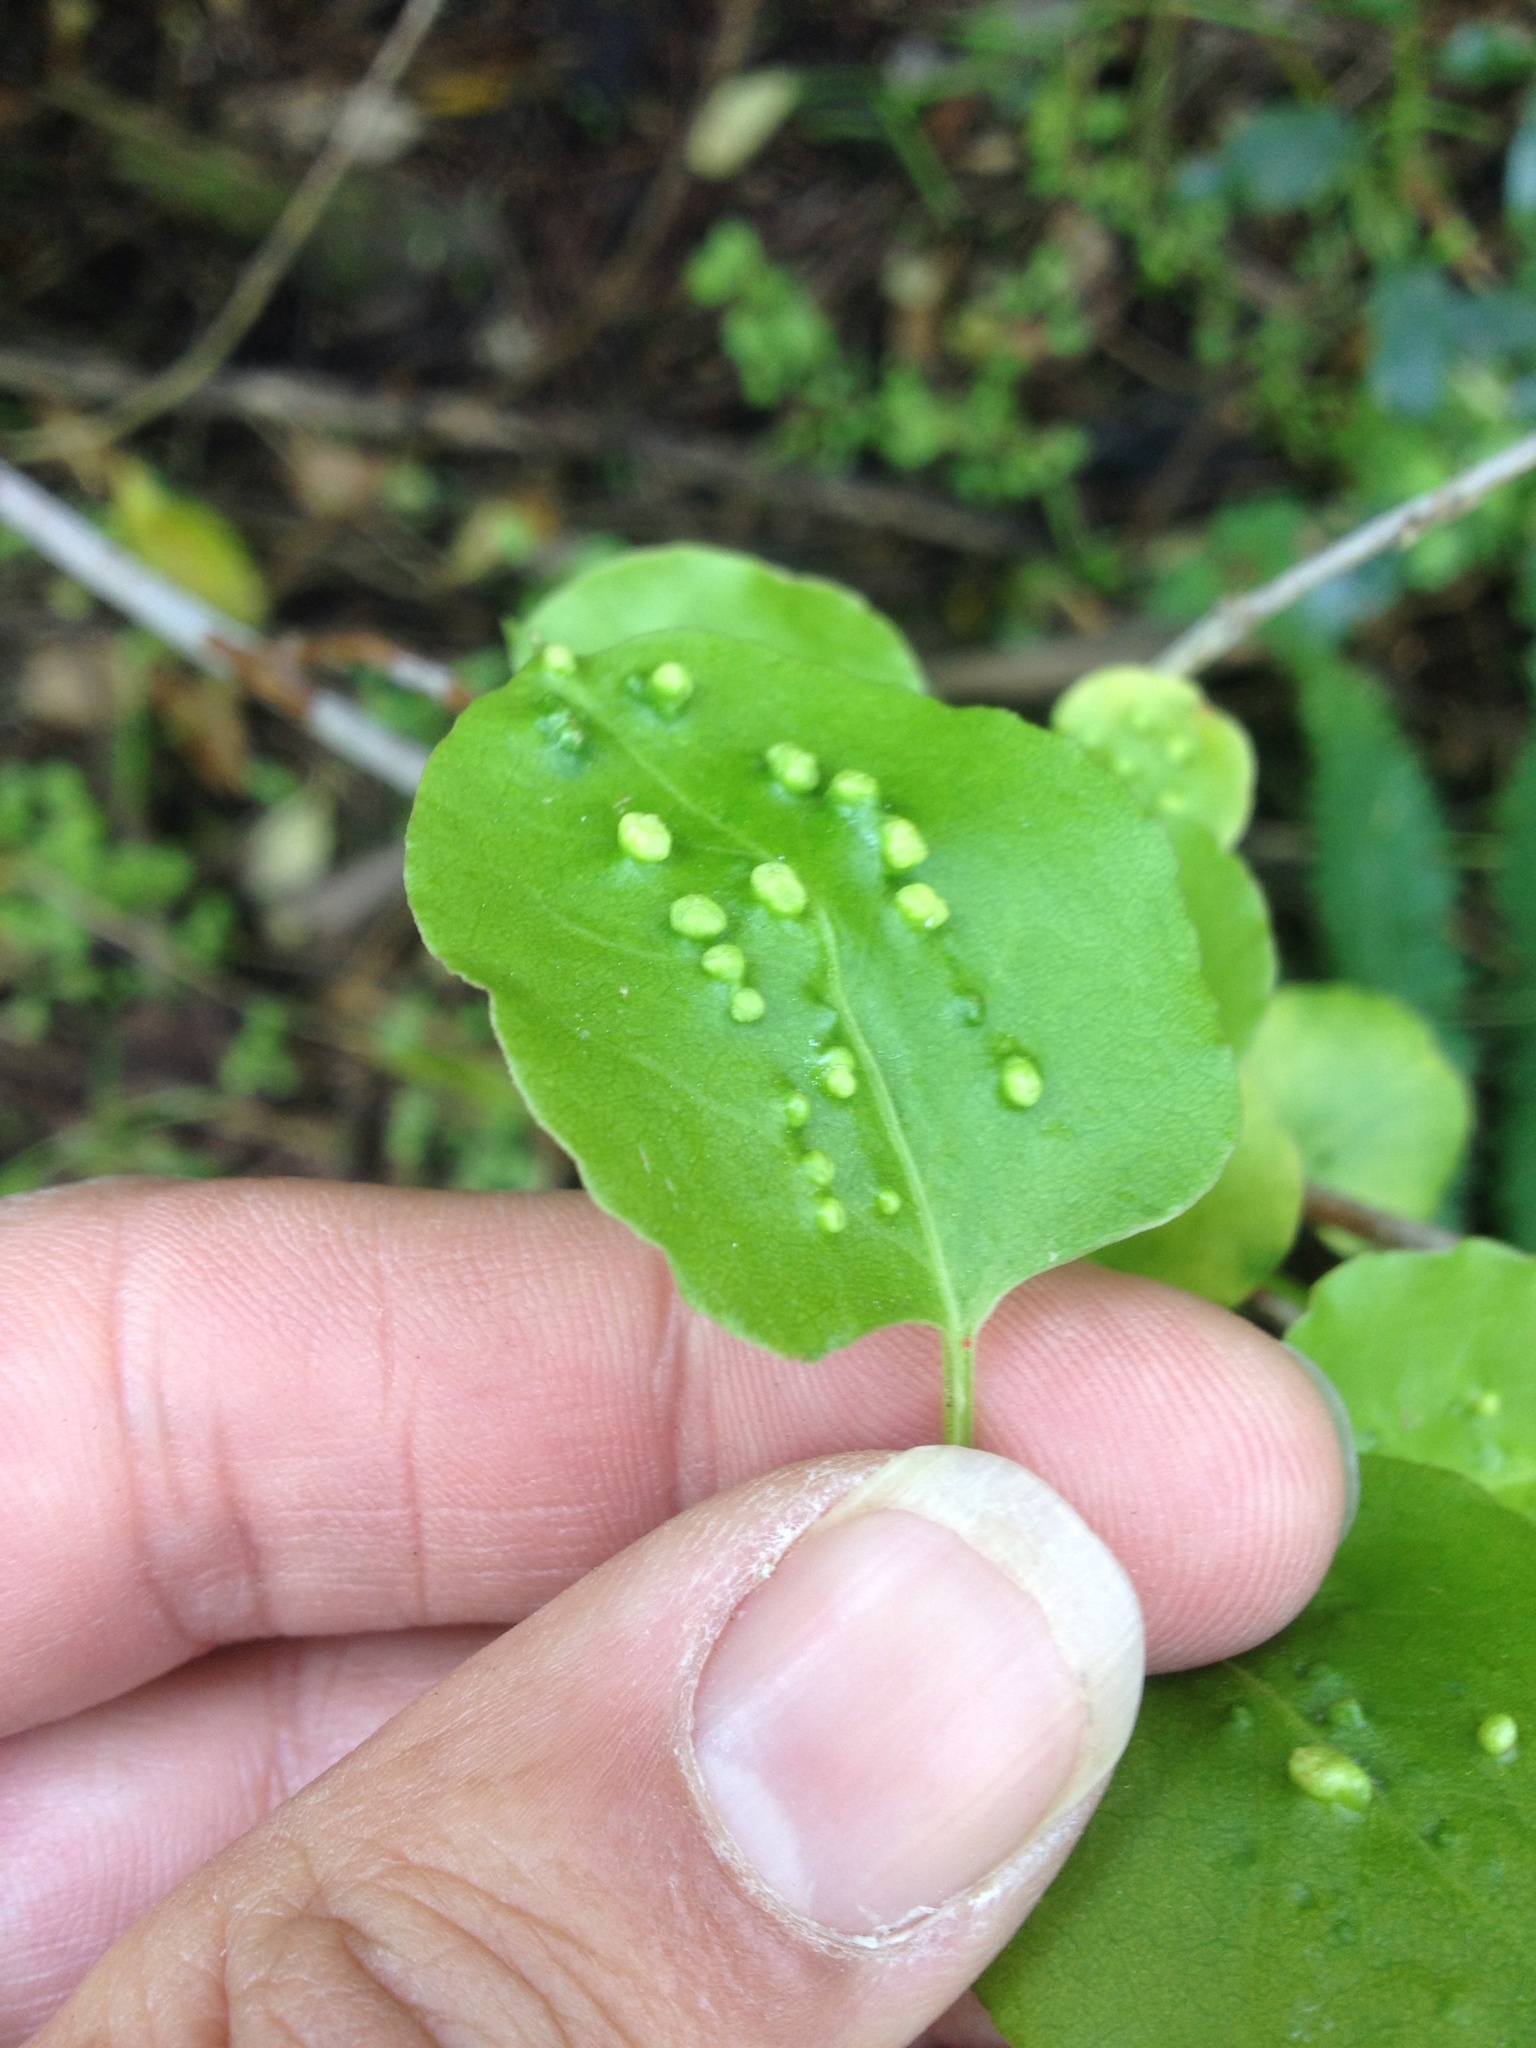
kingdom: Animalia
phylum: Arthropoda
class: Arachnida
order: Trombidiformes
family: Eriophyidae
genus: Aceria
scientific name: Aceria lamii
